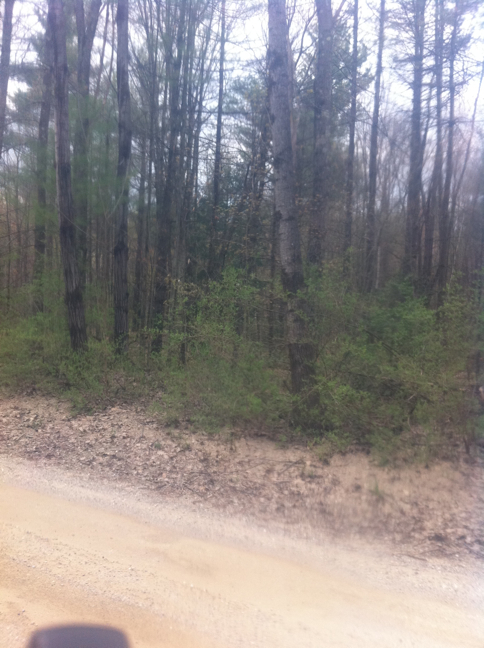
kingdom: Plantae
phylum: Tracheophyta
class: Pinopsida
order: Pinales
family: Pinaceae
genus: Pinus
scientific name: Pinus strobus
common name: Weymouth pine
